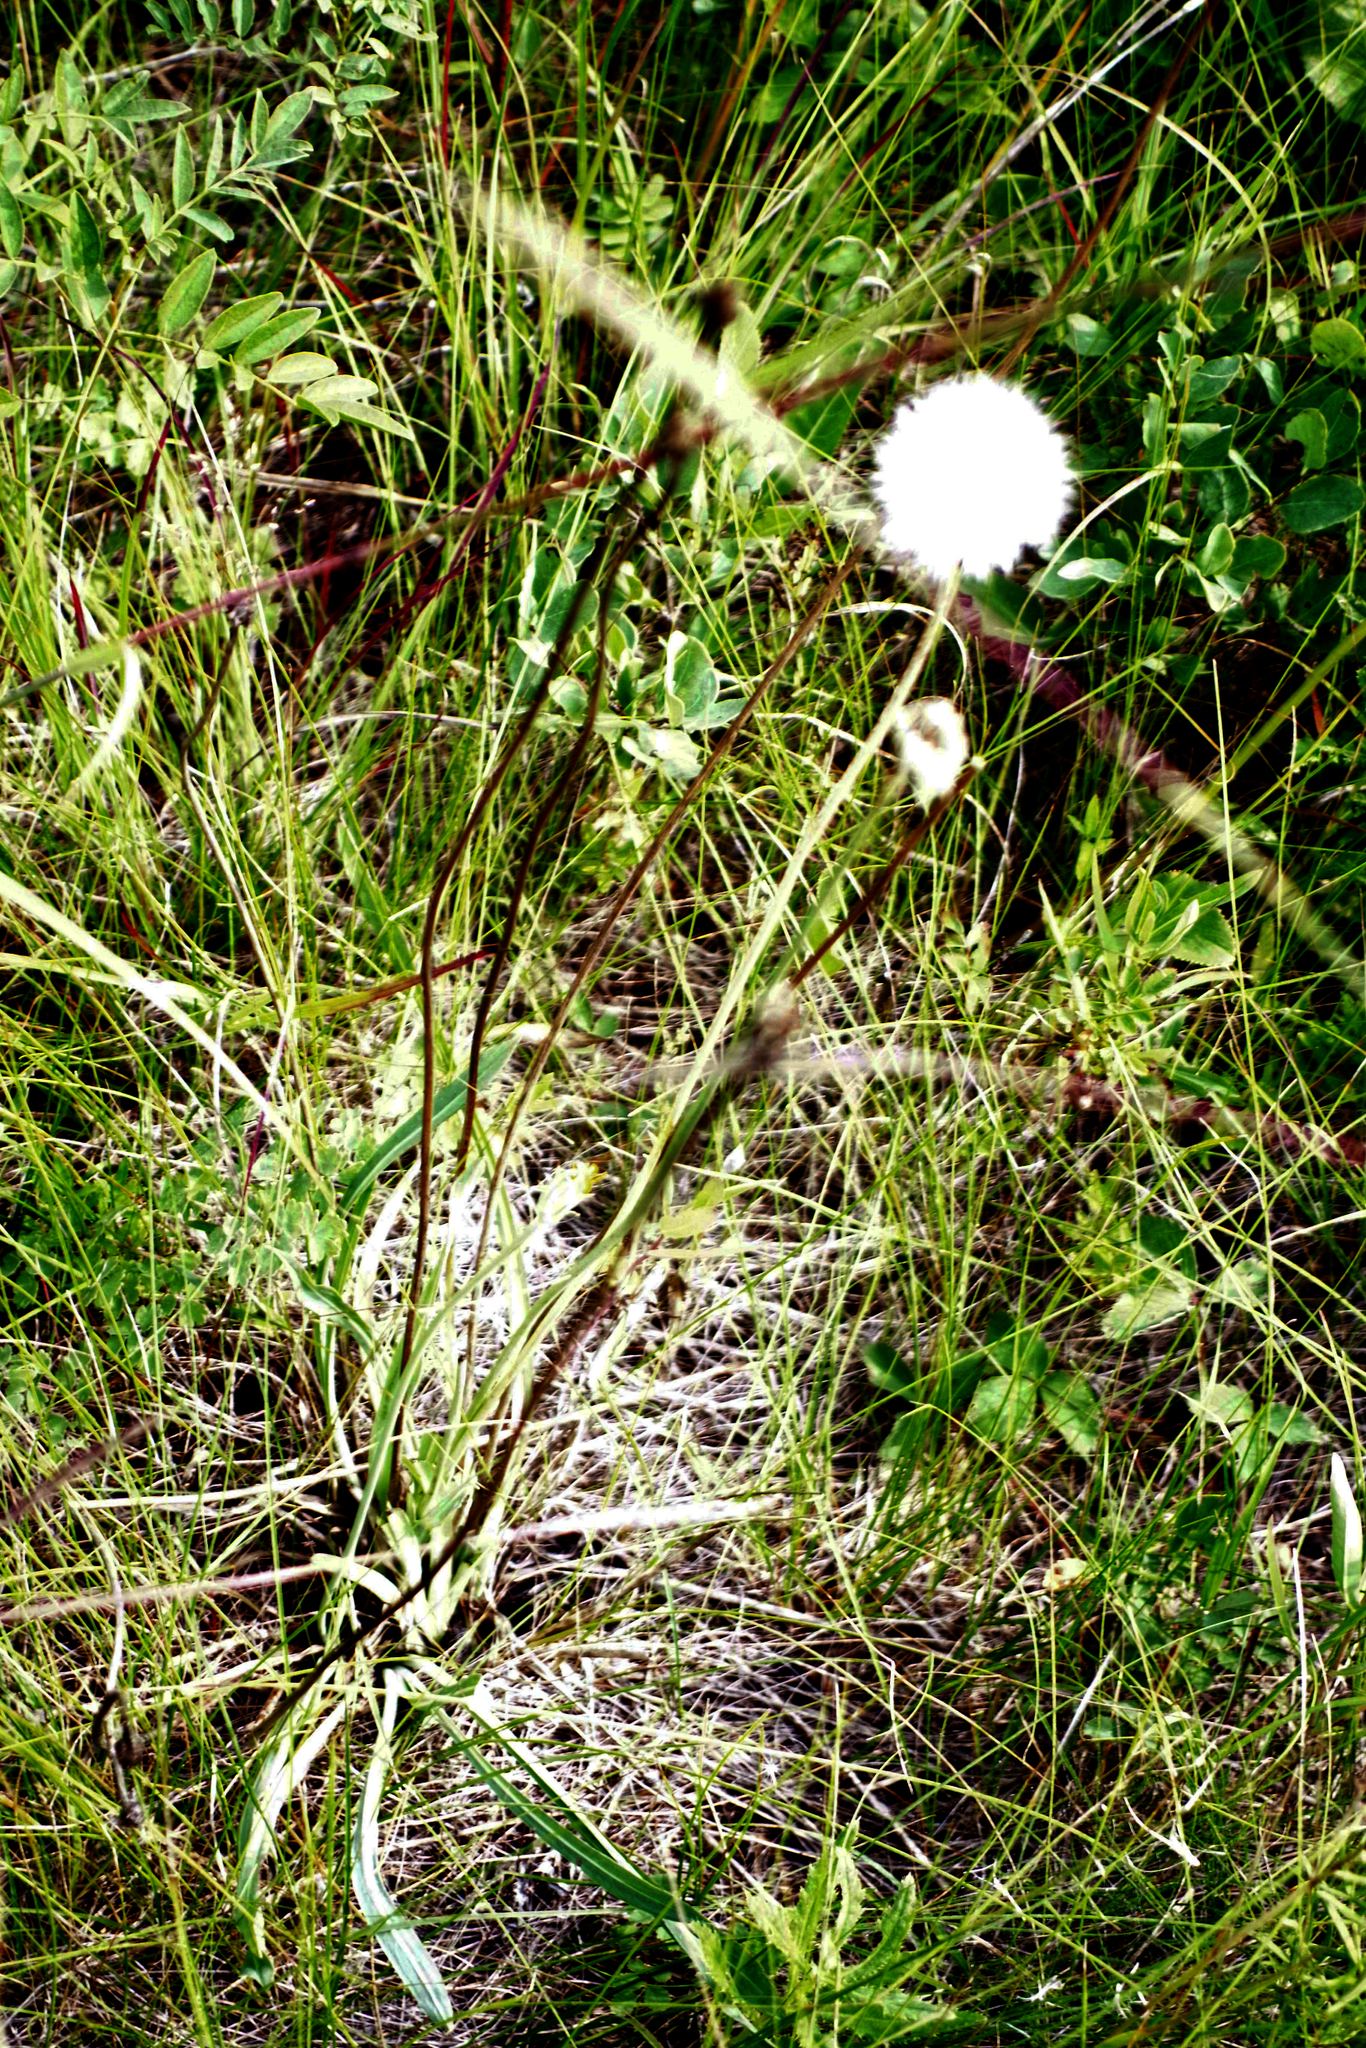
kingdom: Plantae
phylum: Tracheophyta
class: Magnoliopsida
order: Asterales
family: Asteraceae
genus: Agoseris
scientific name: Agoseris glauca
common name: Prairie agoseris
